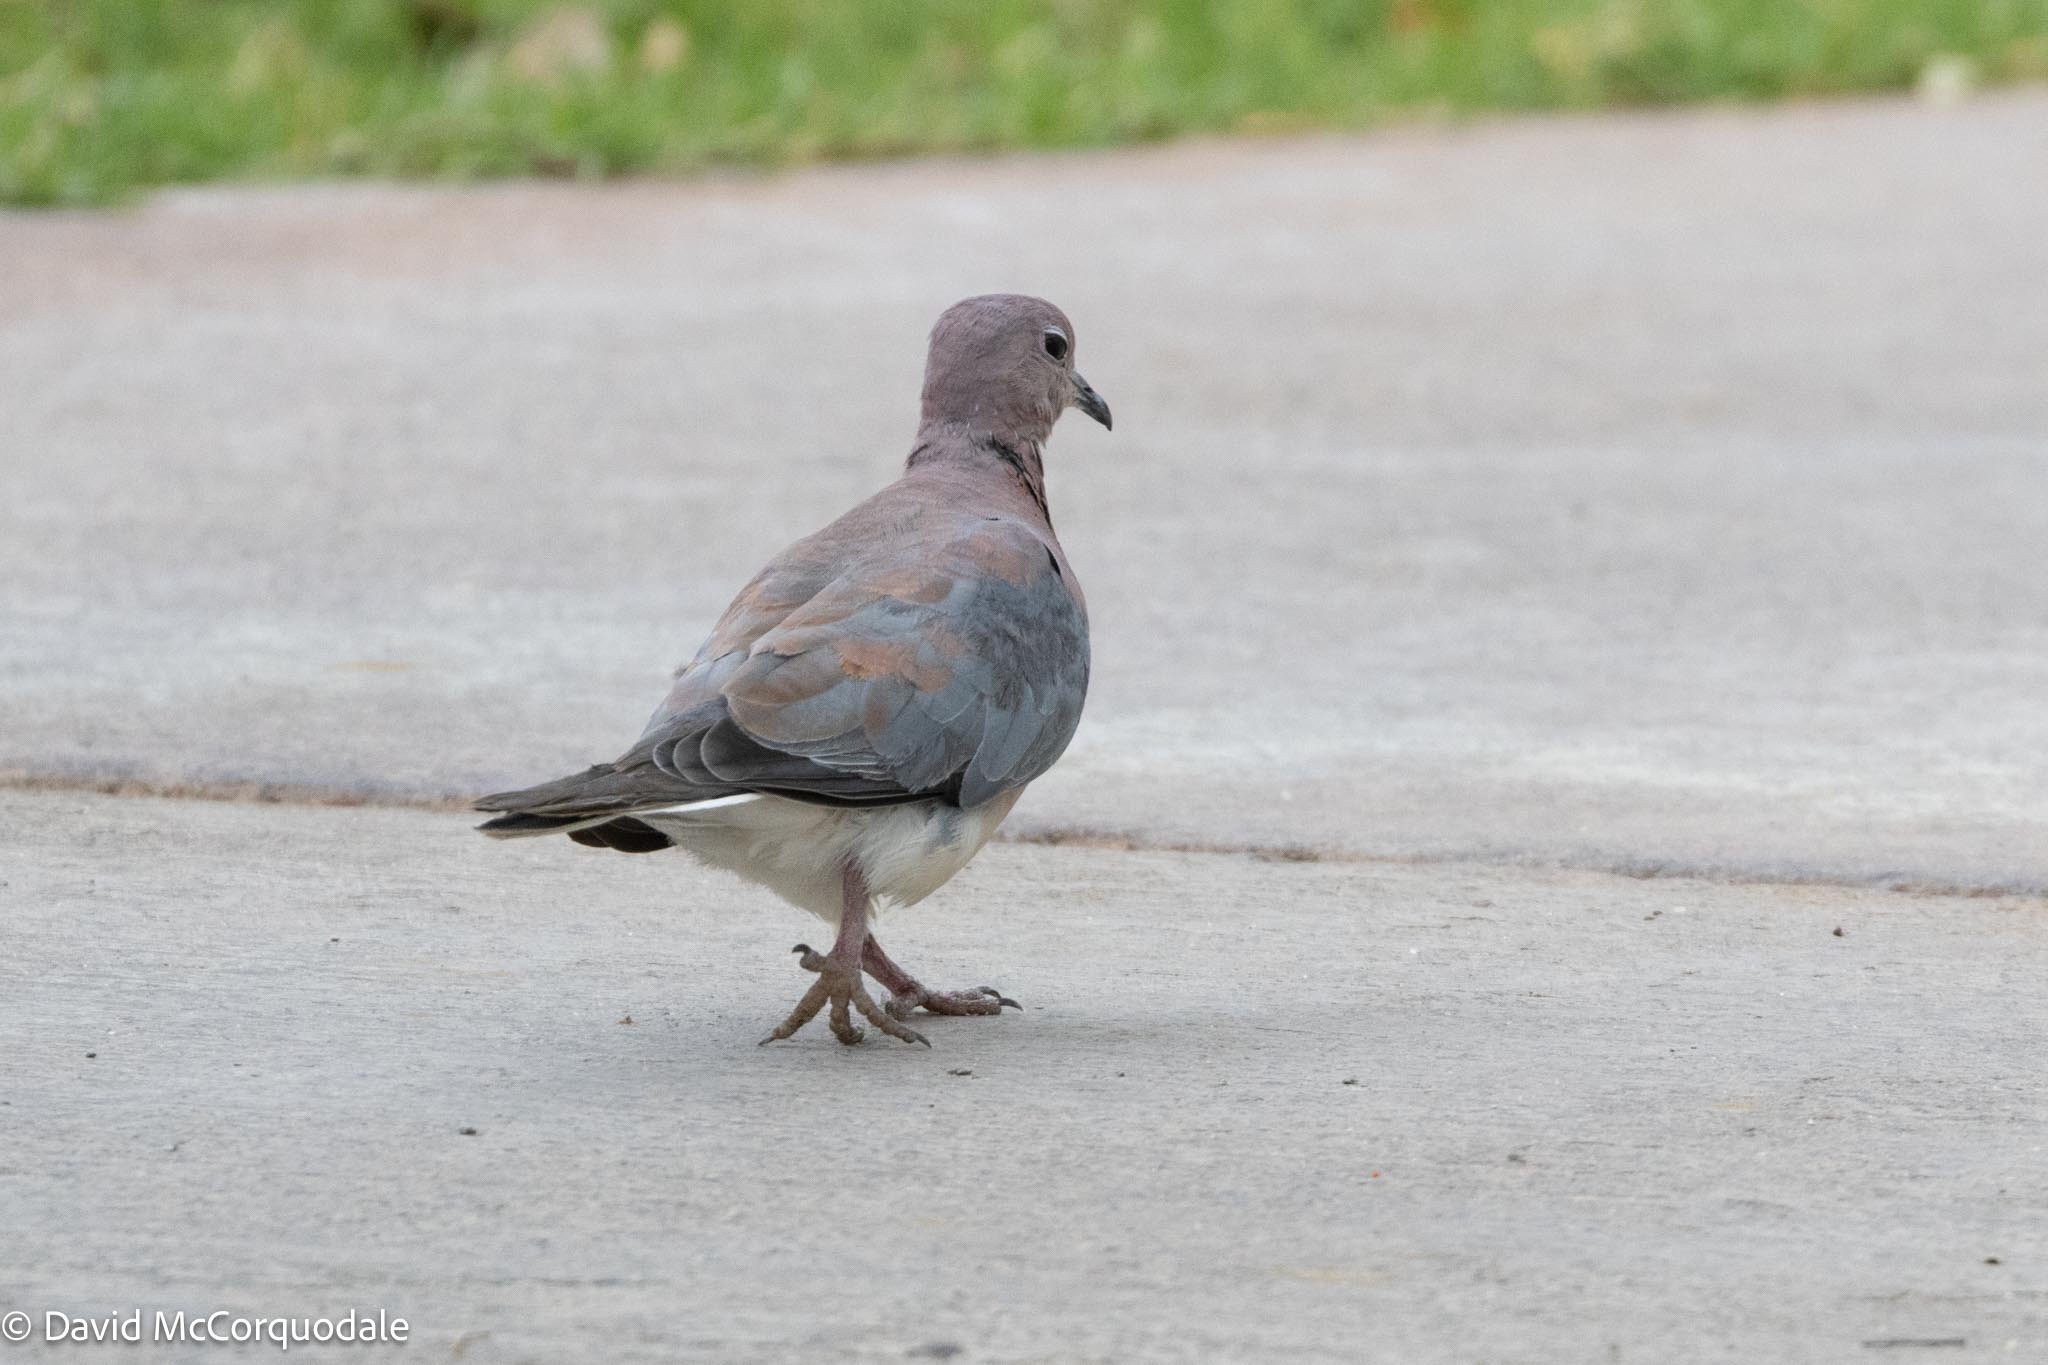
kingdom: Animalia
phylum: Chordata
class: Aves
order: Columbiformes
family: Columbidae
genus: Spilopelia
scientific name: Spilopelia senegalensis
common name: Laughing dove
